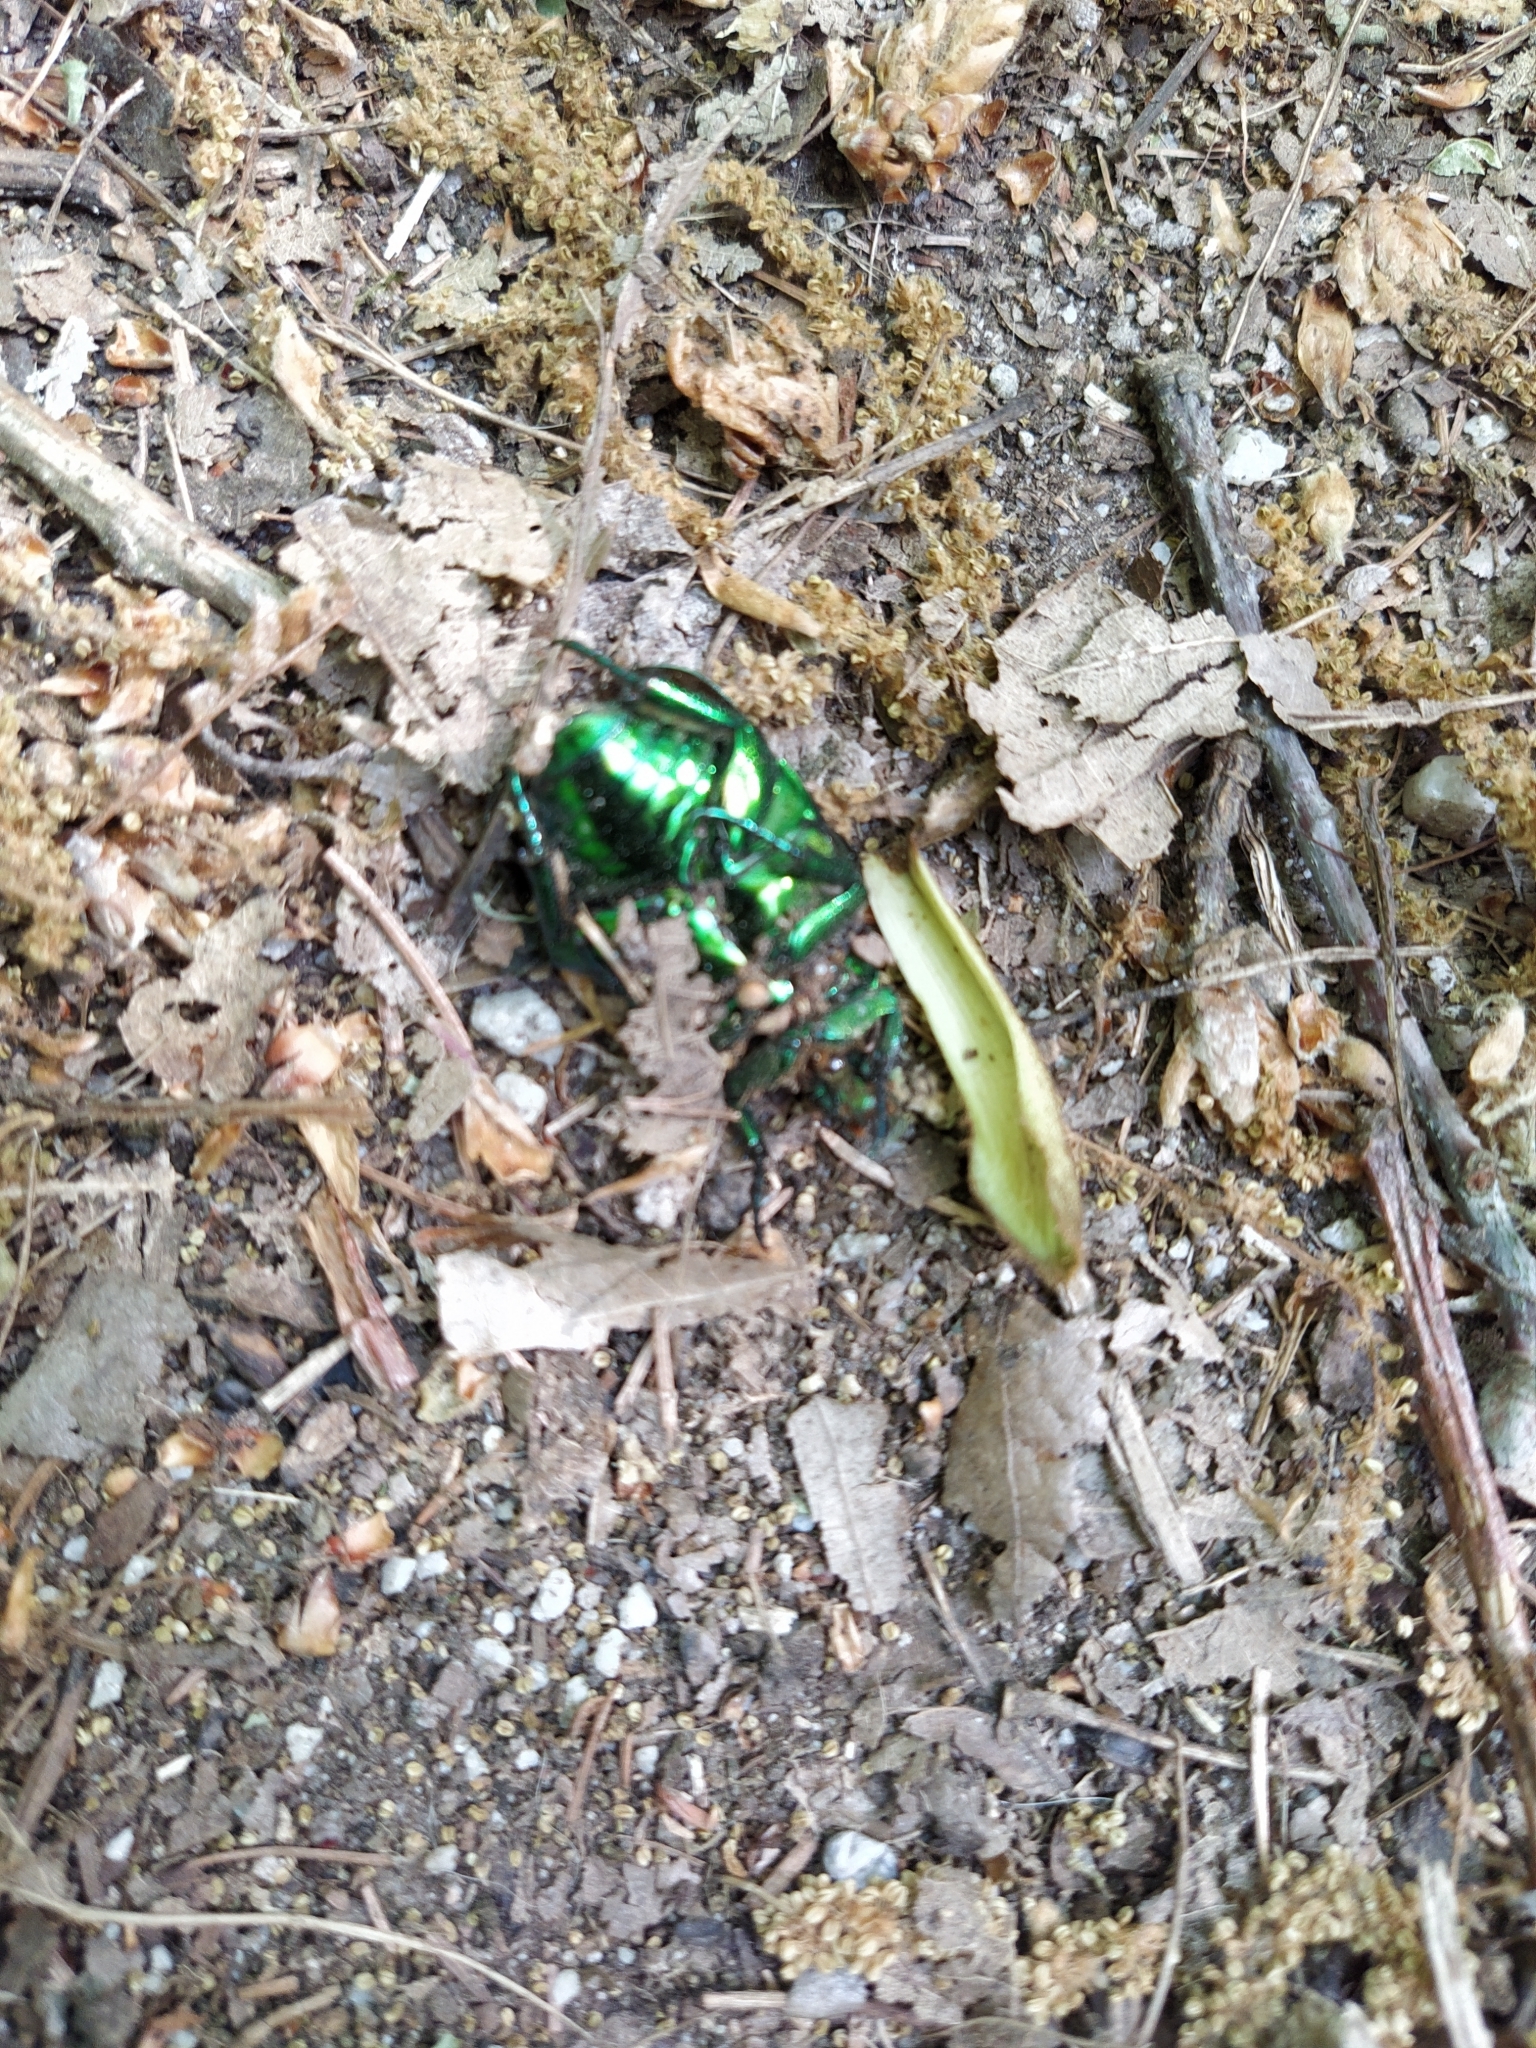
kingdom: Animalia
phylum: Arthropoda
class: Insecta
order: Coleoptera
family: Scarabaeidae
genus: Protaetia
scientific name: Protaetia speciosissima
